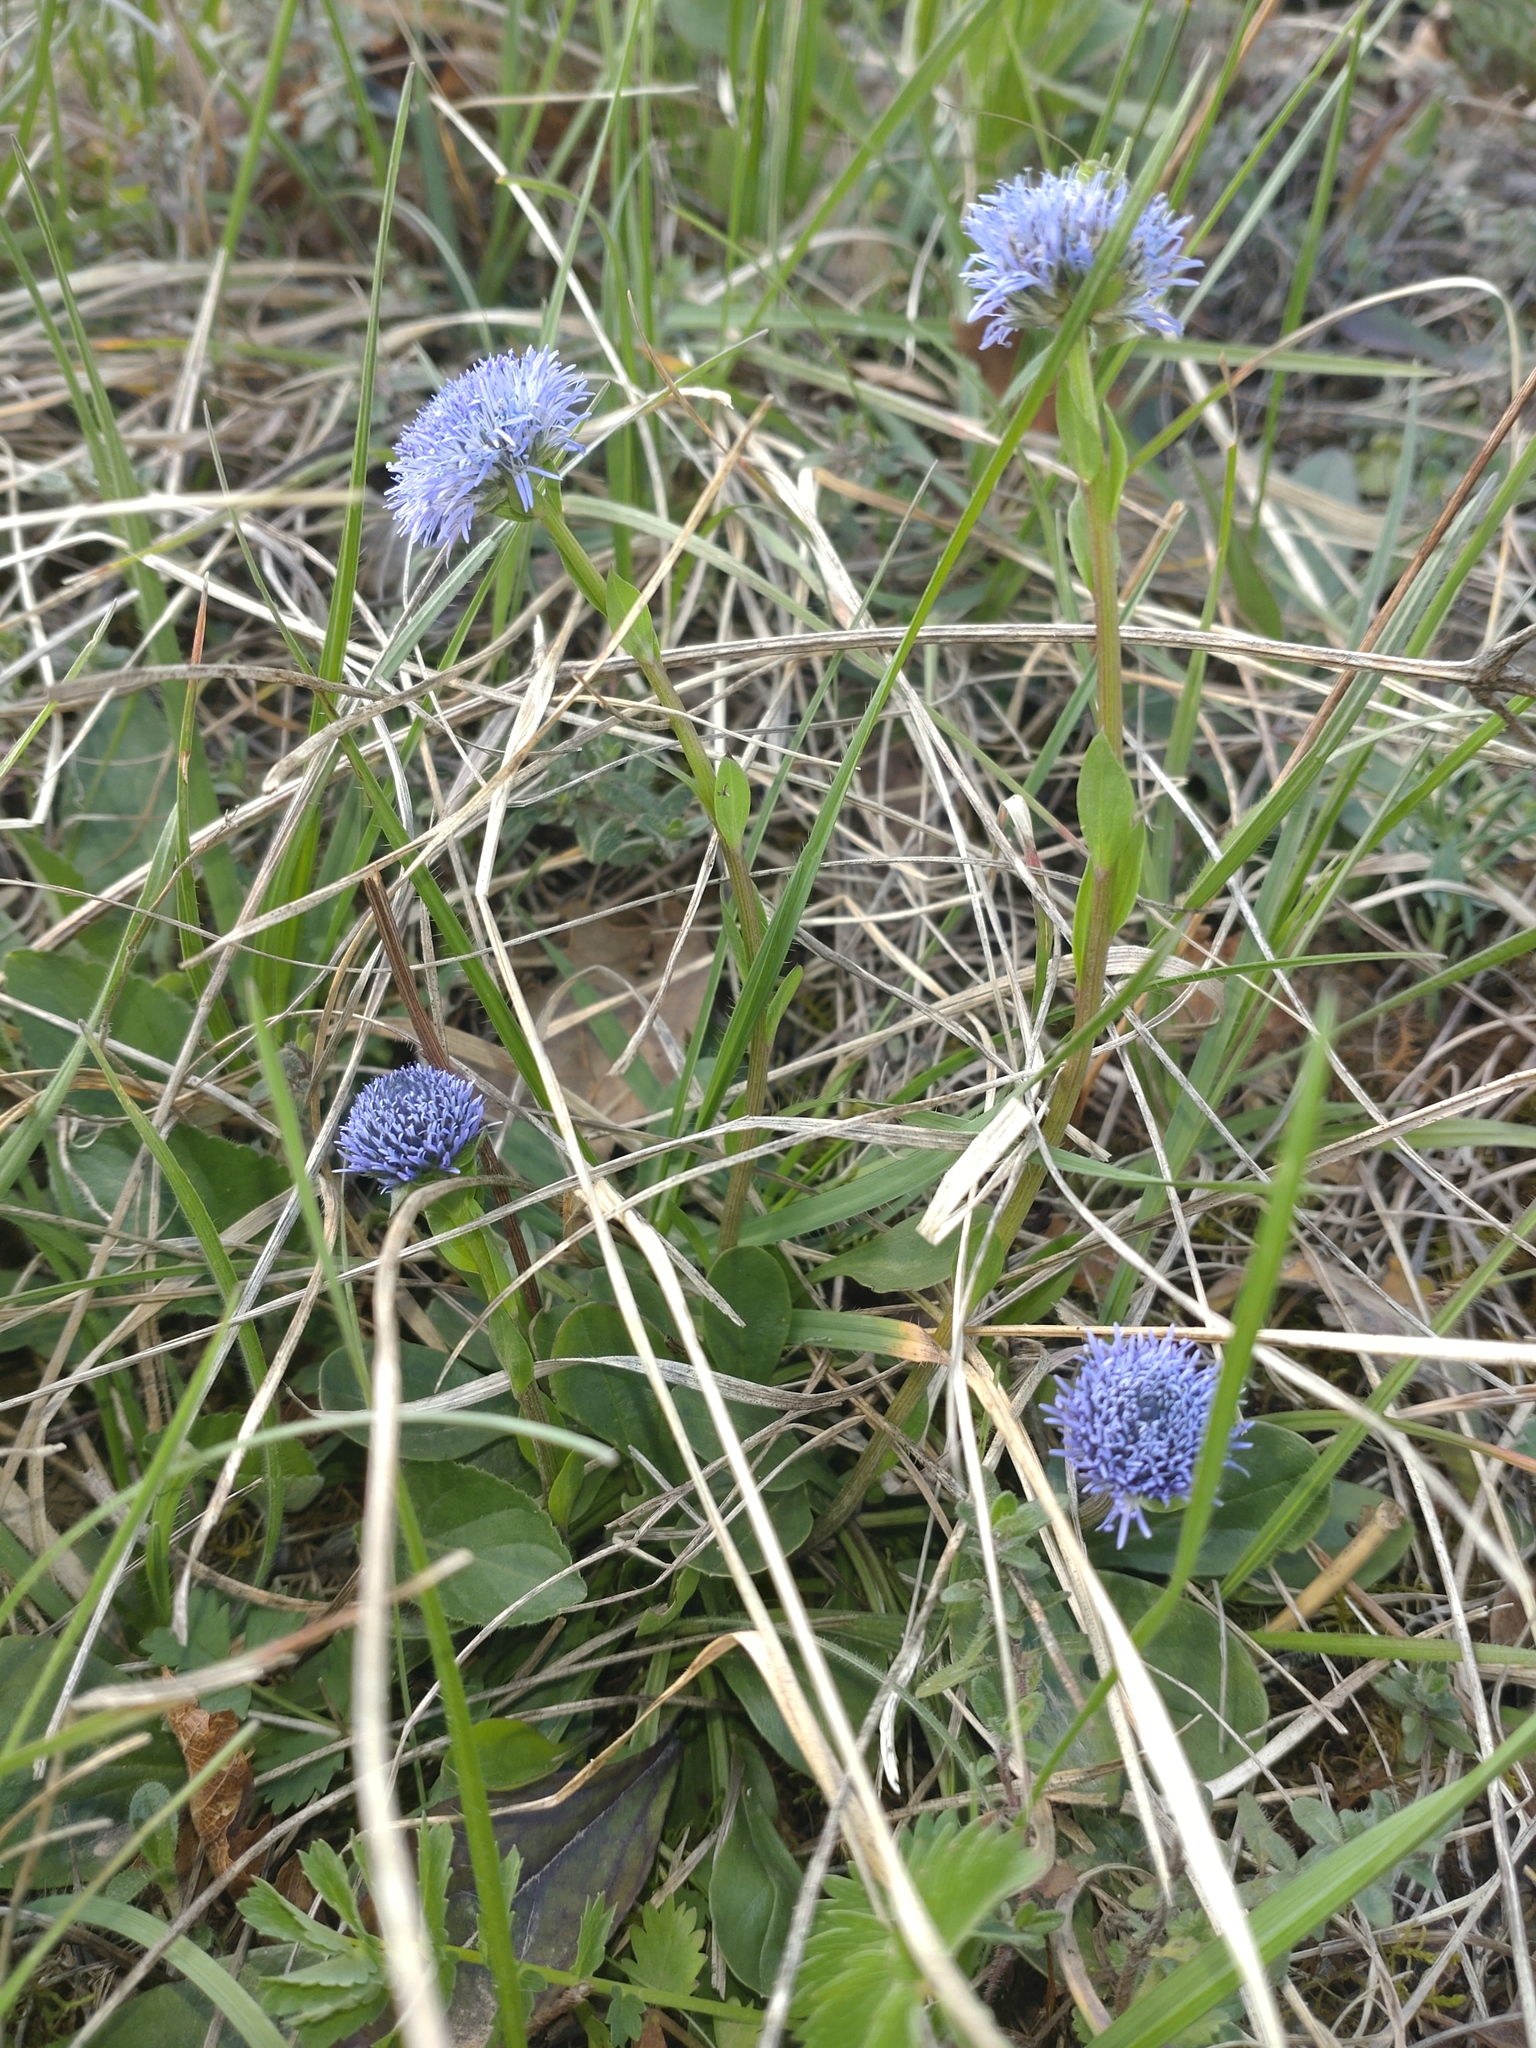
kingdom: Plantae
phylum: Tracheophyta
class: Magnoliopsida
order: Lamiales
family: Plantaginaceae
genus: Globularia
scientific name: Globularia bisnagarica
